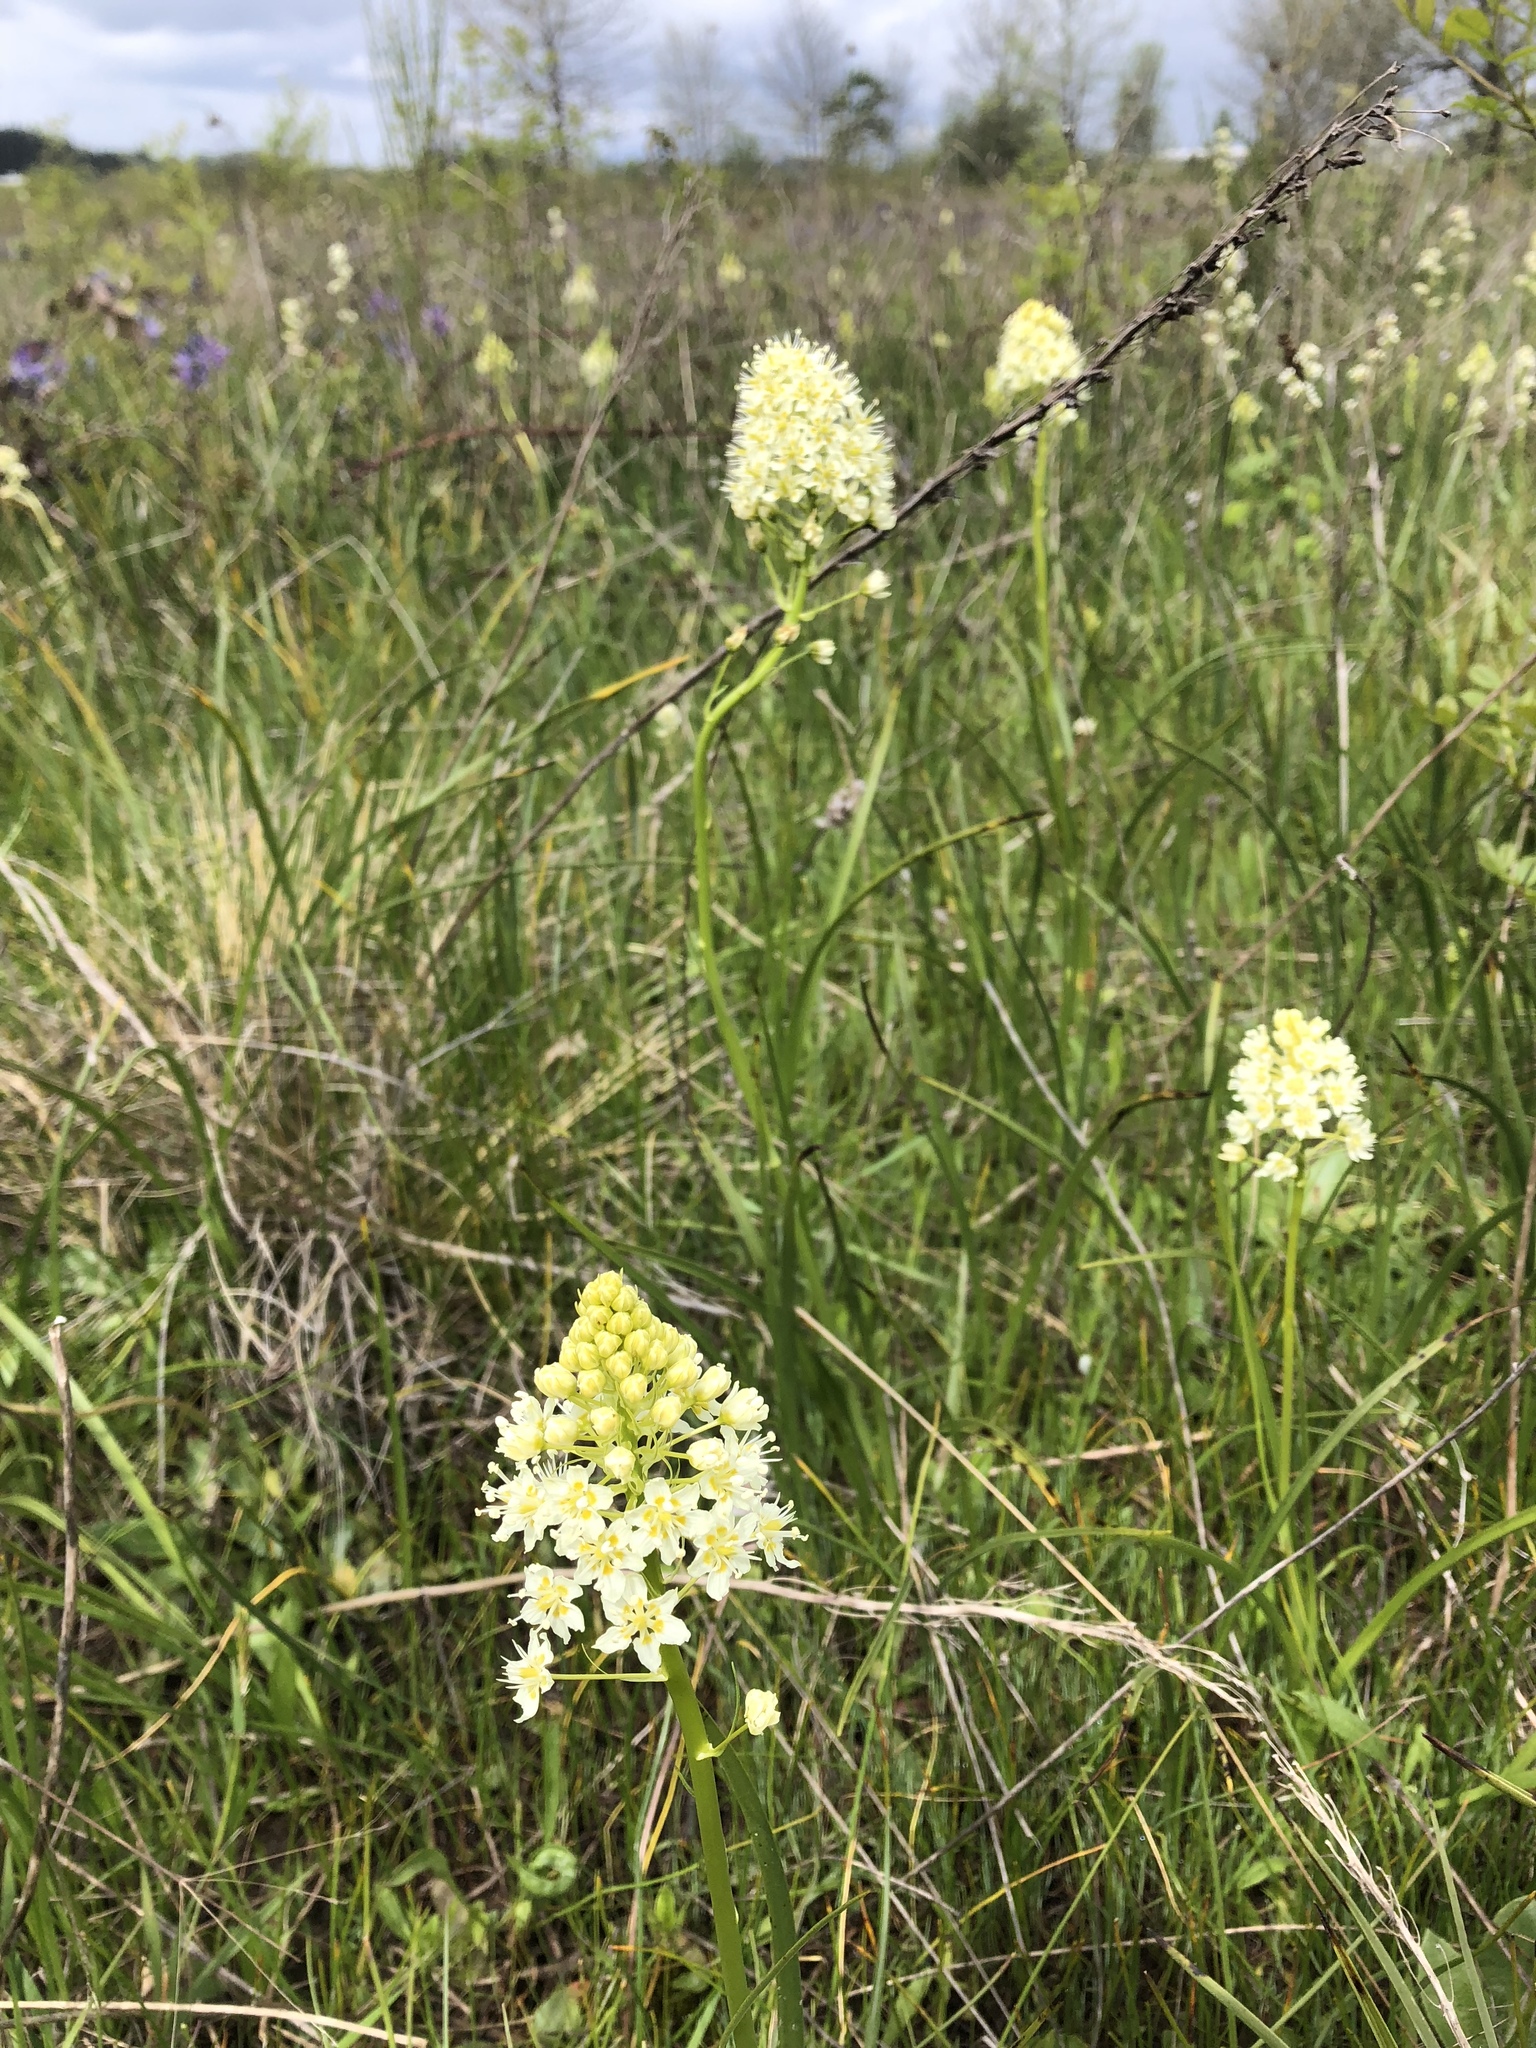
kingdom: Plantae
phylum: Tracheophyta
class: Liliopsida
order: Liliales
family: Melanthiaceae
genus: Toxicoscordion
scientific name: Toxicoscordion venenosum
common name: Meadow death camas
